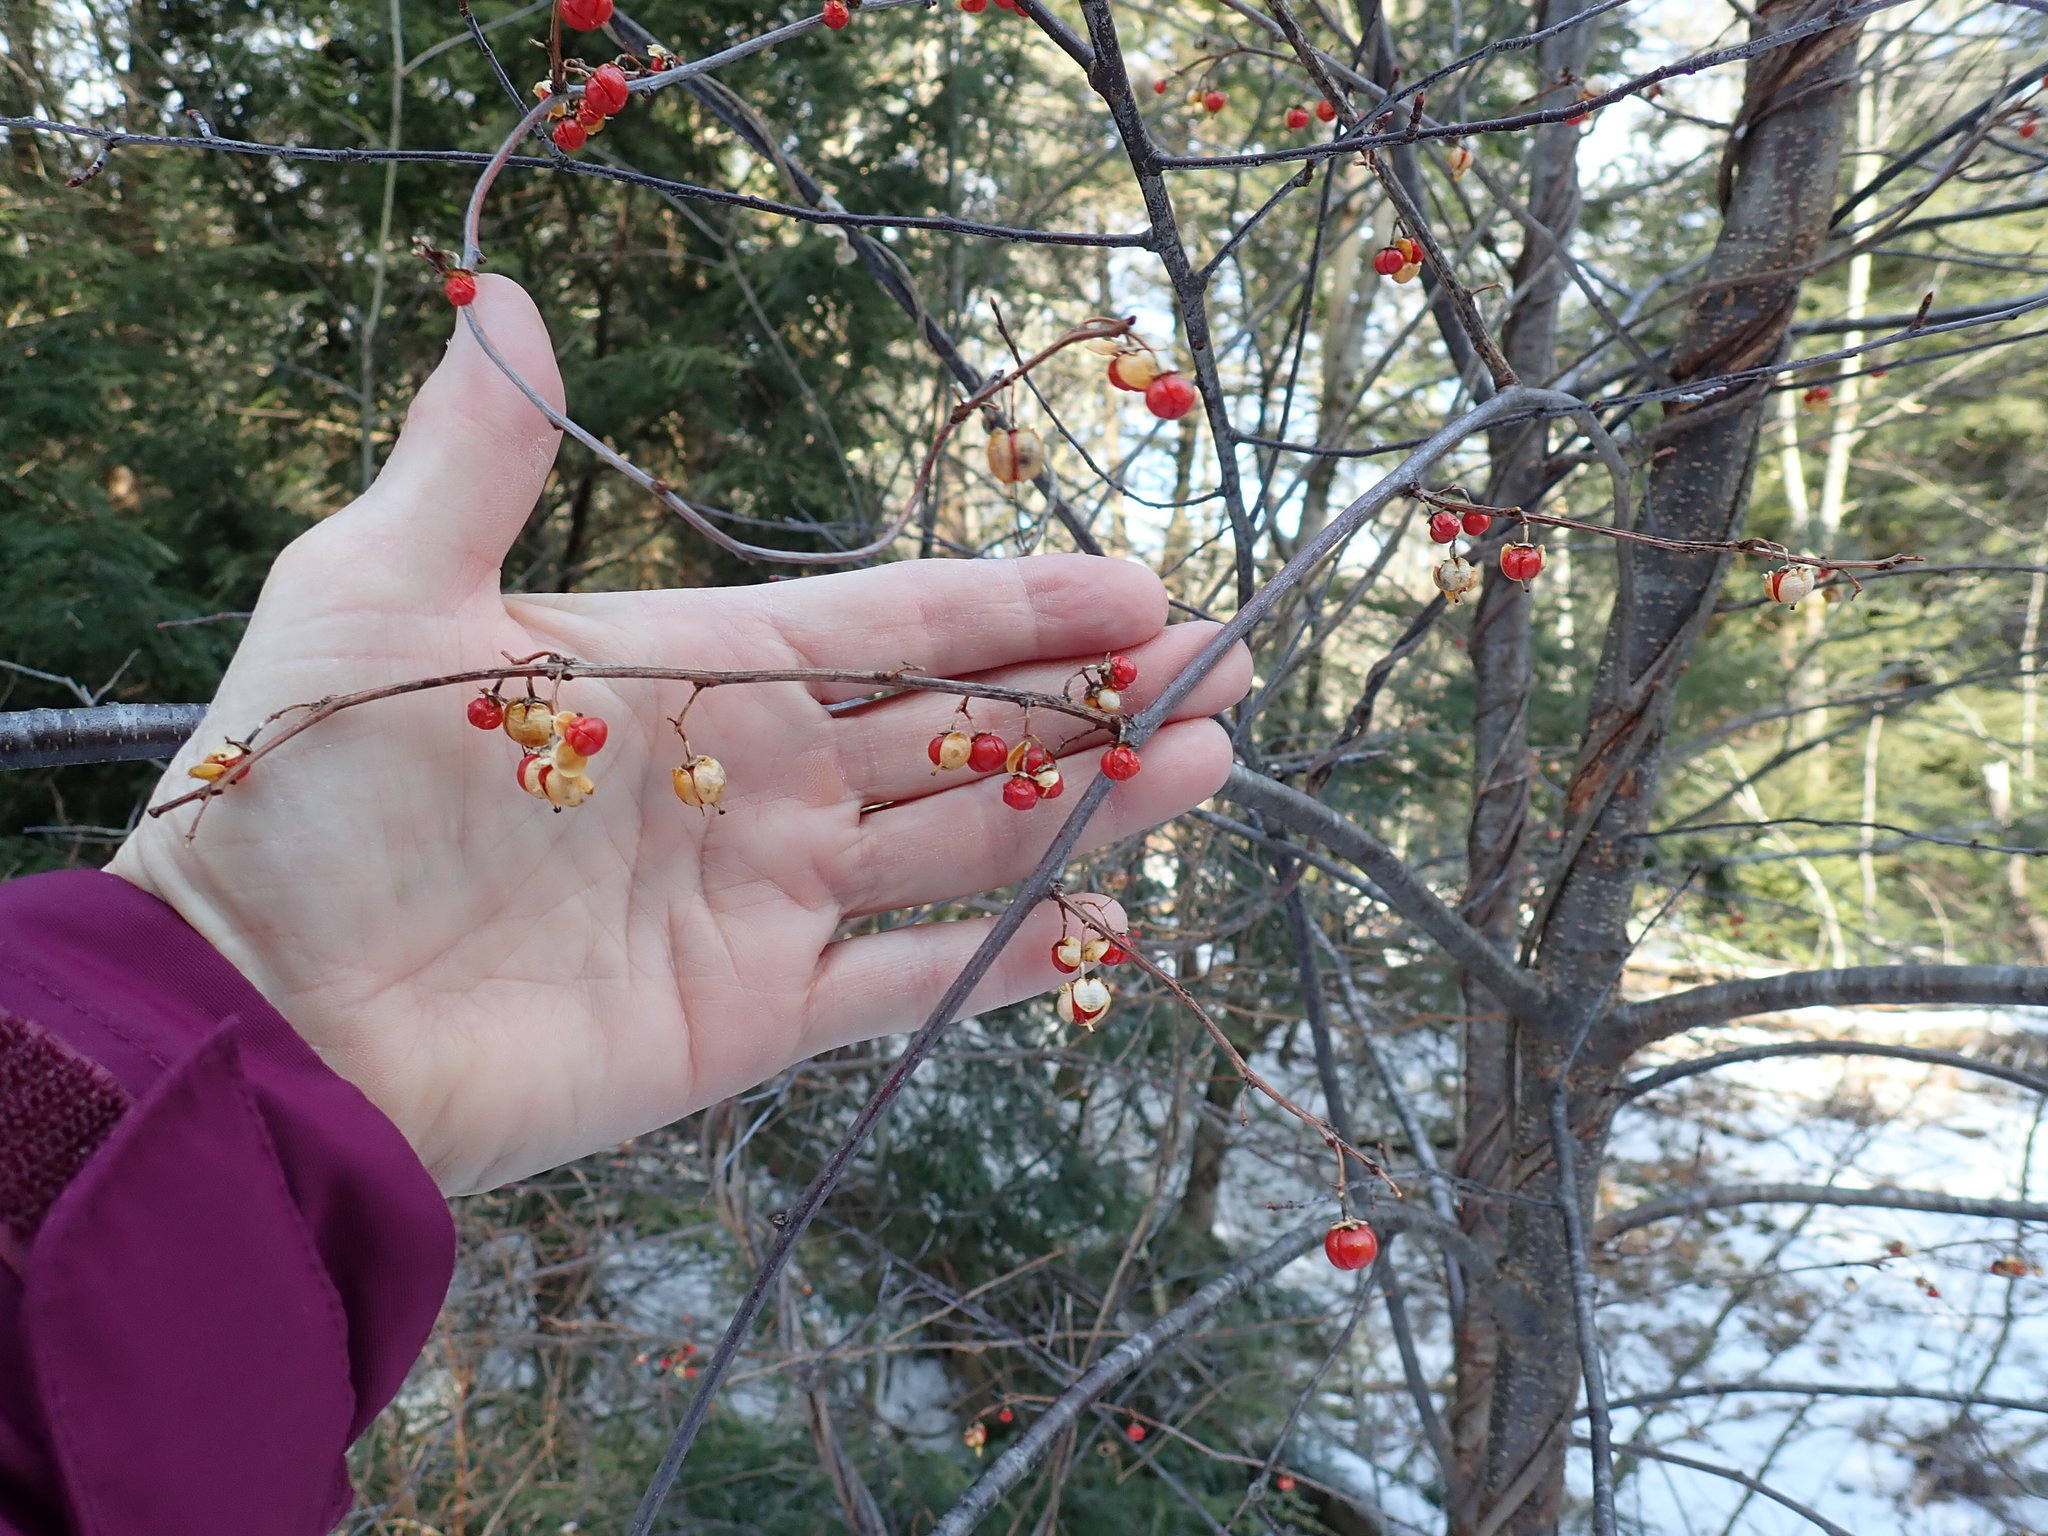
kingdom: Plantae
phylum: Tracheophyta
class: Magnoliopsida
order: Celastrales
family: Celastraceae
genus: Celastrus
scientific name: Celastrus orbiculatus
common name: Oriental bittersweet
